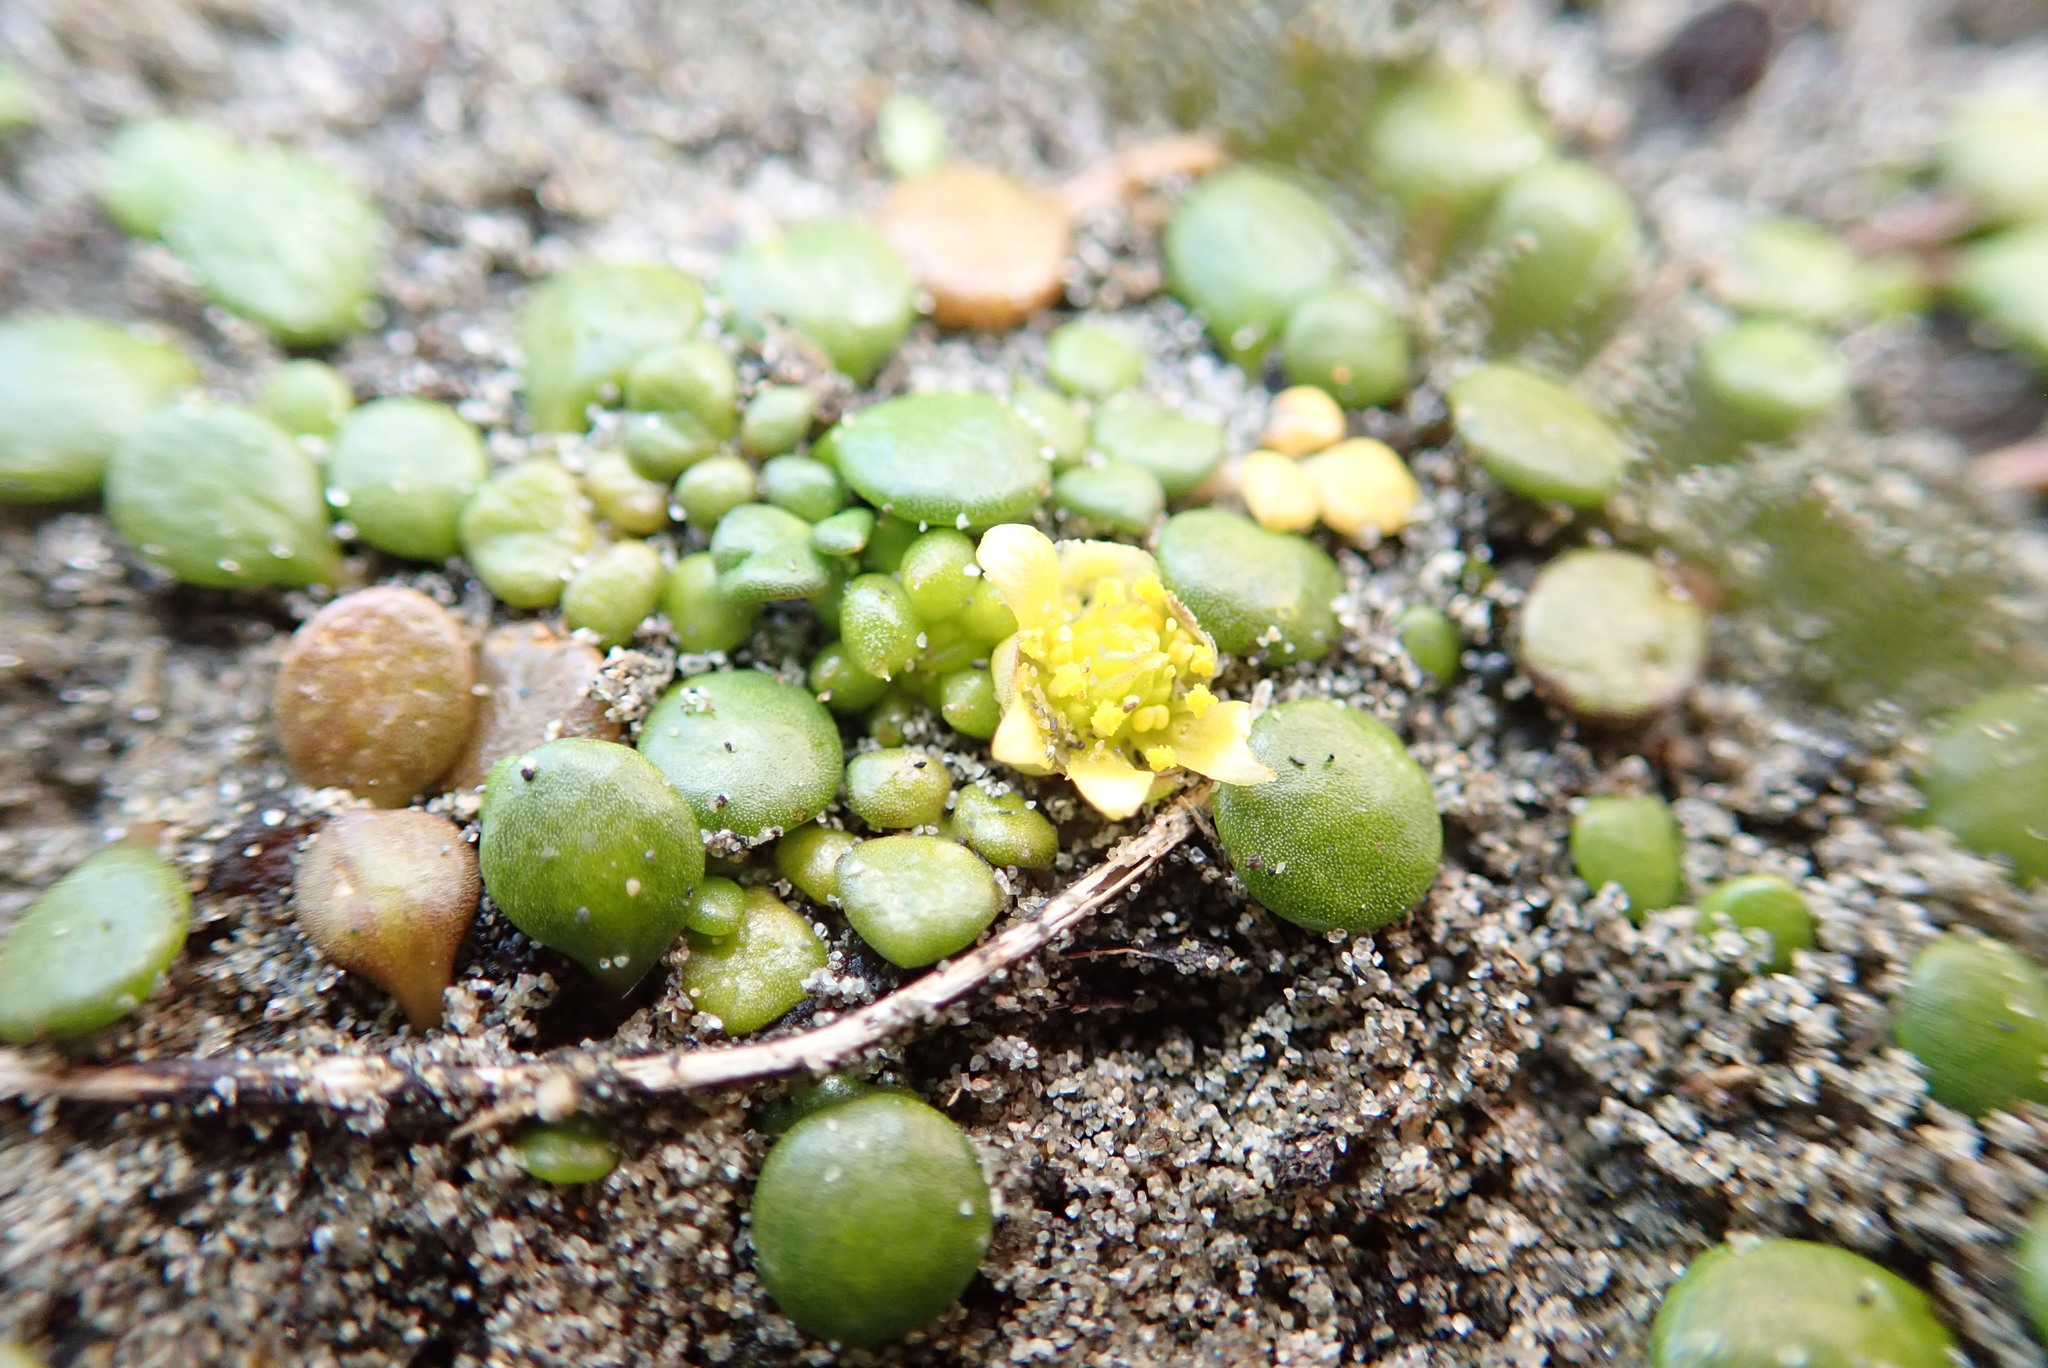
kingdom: Plantae
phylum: Tracheophyta
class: Magnoliopsida
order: Ranunculales
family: Ranunculaceae
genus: Ranunculus
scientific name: Ranunculus acaulis
